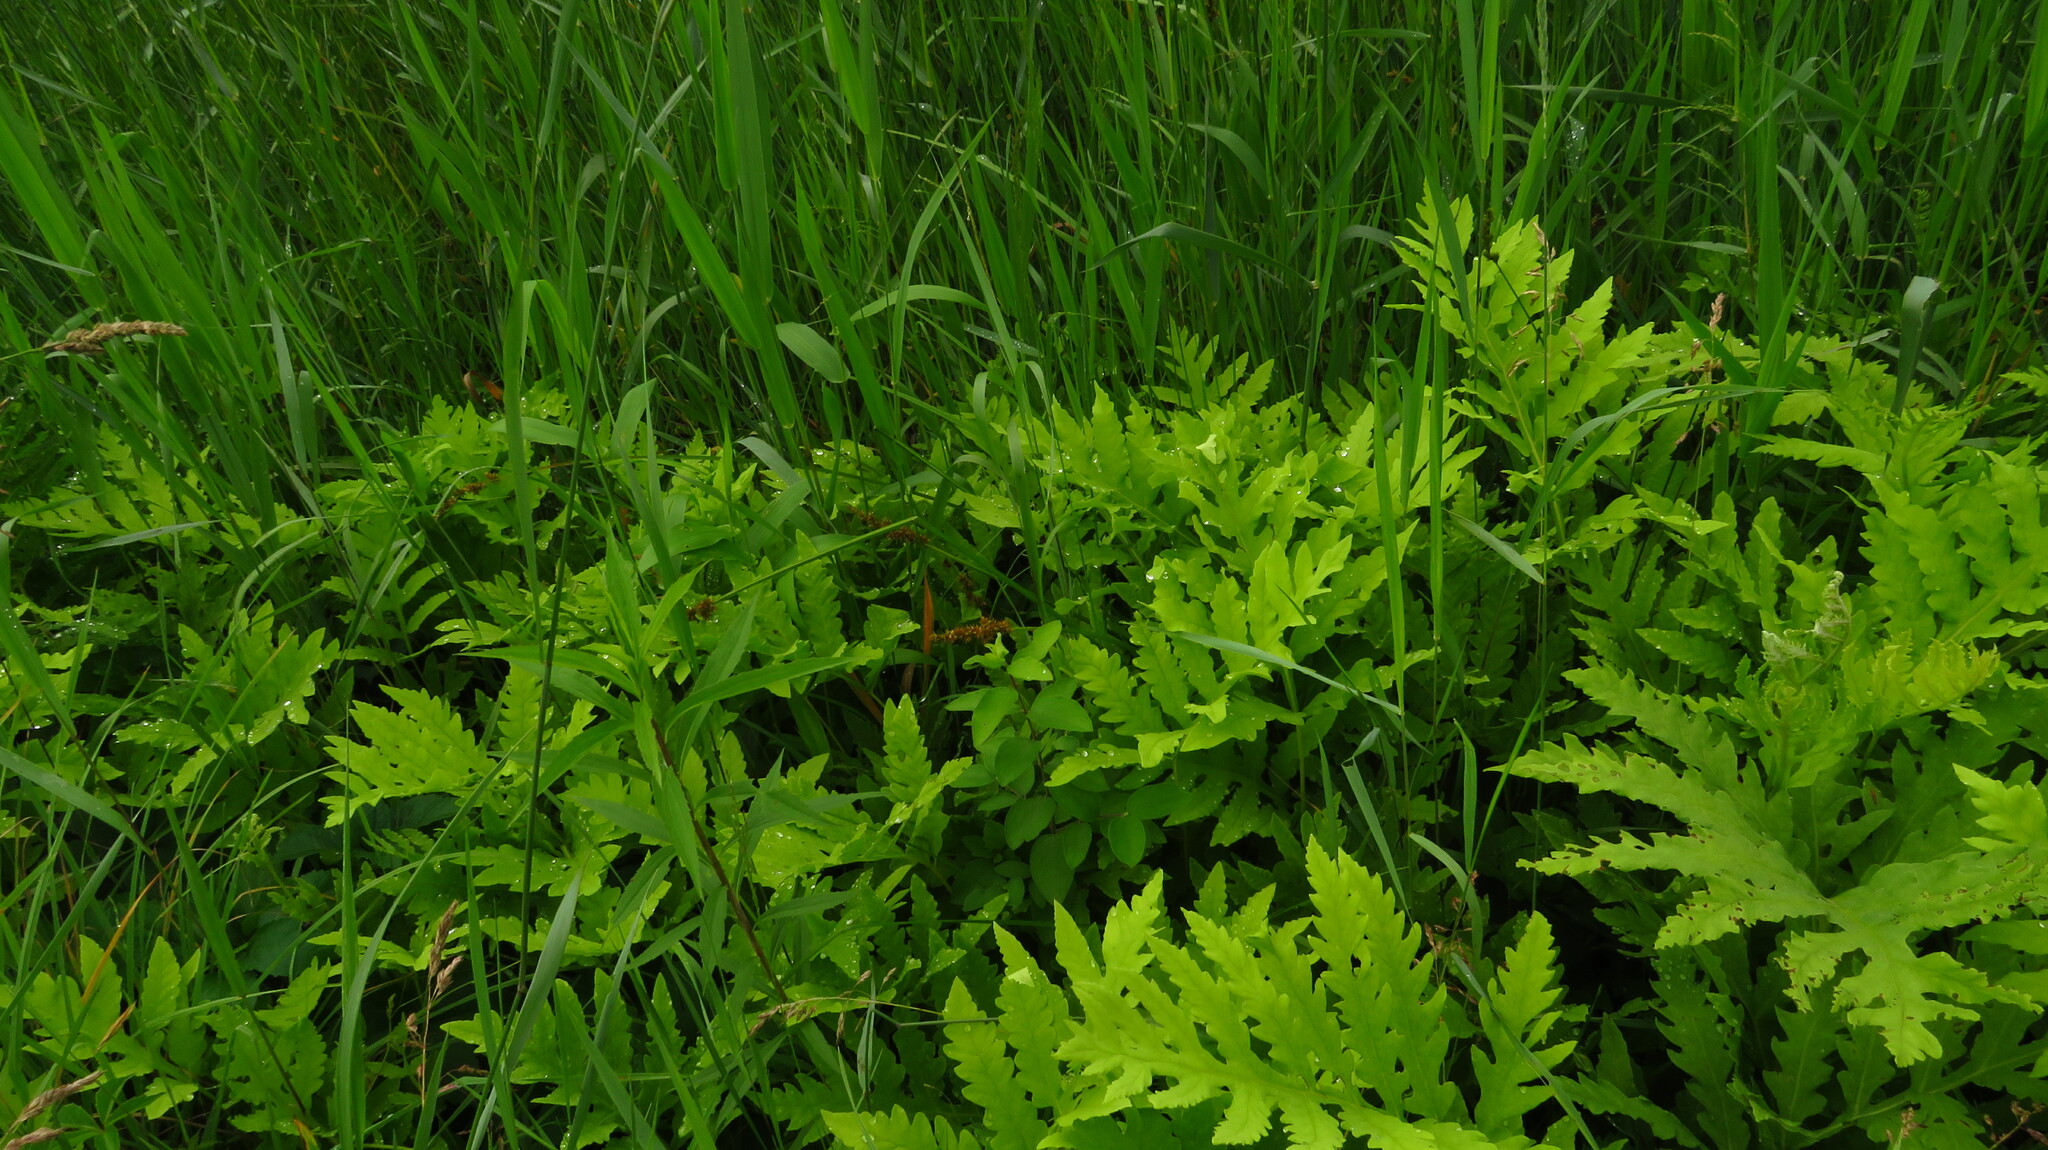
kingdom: Plantae
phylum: Tracheophyta
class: Polypodiopsida
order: Polypodiales
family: Onocleaceae
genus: Onoclea
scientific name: Onoclea sensibilis
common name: Sensitive fern
